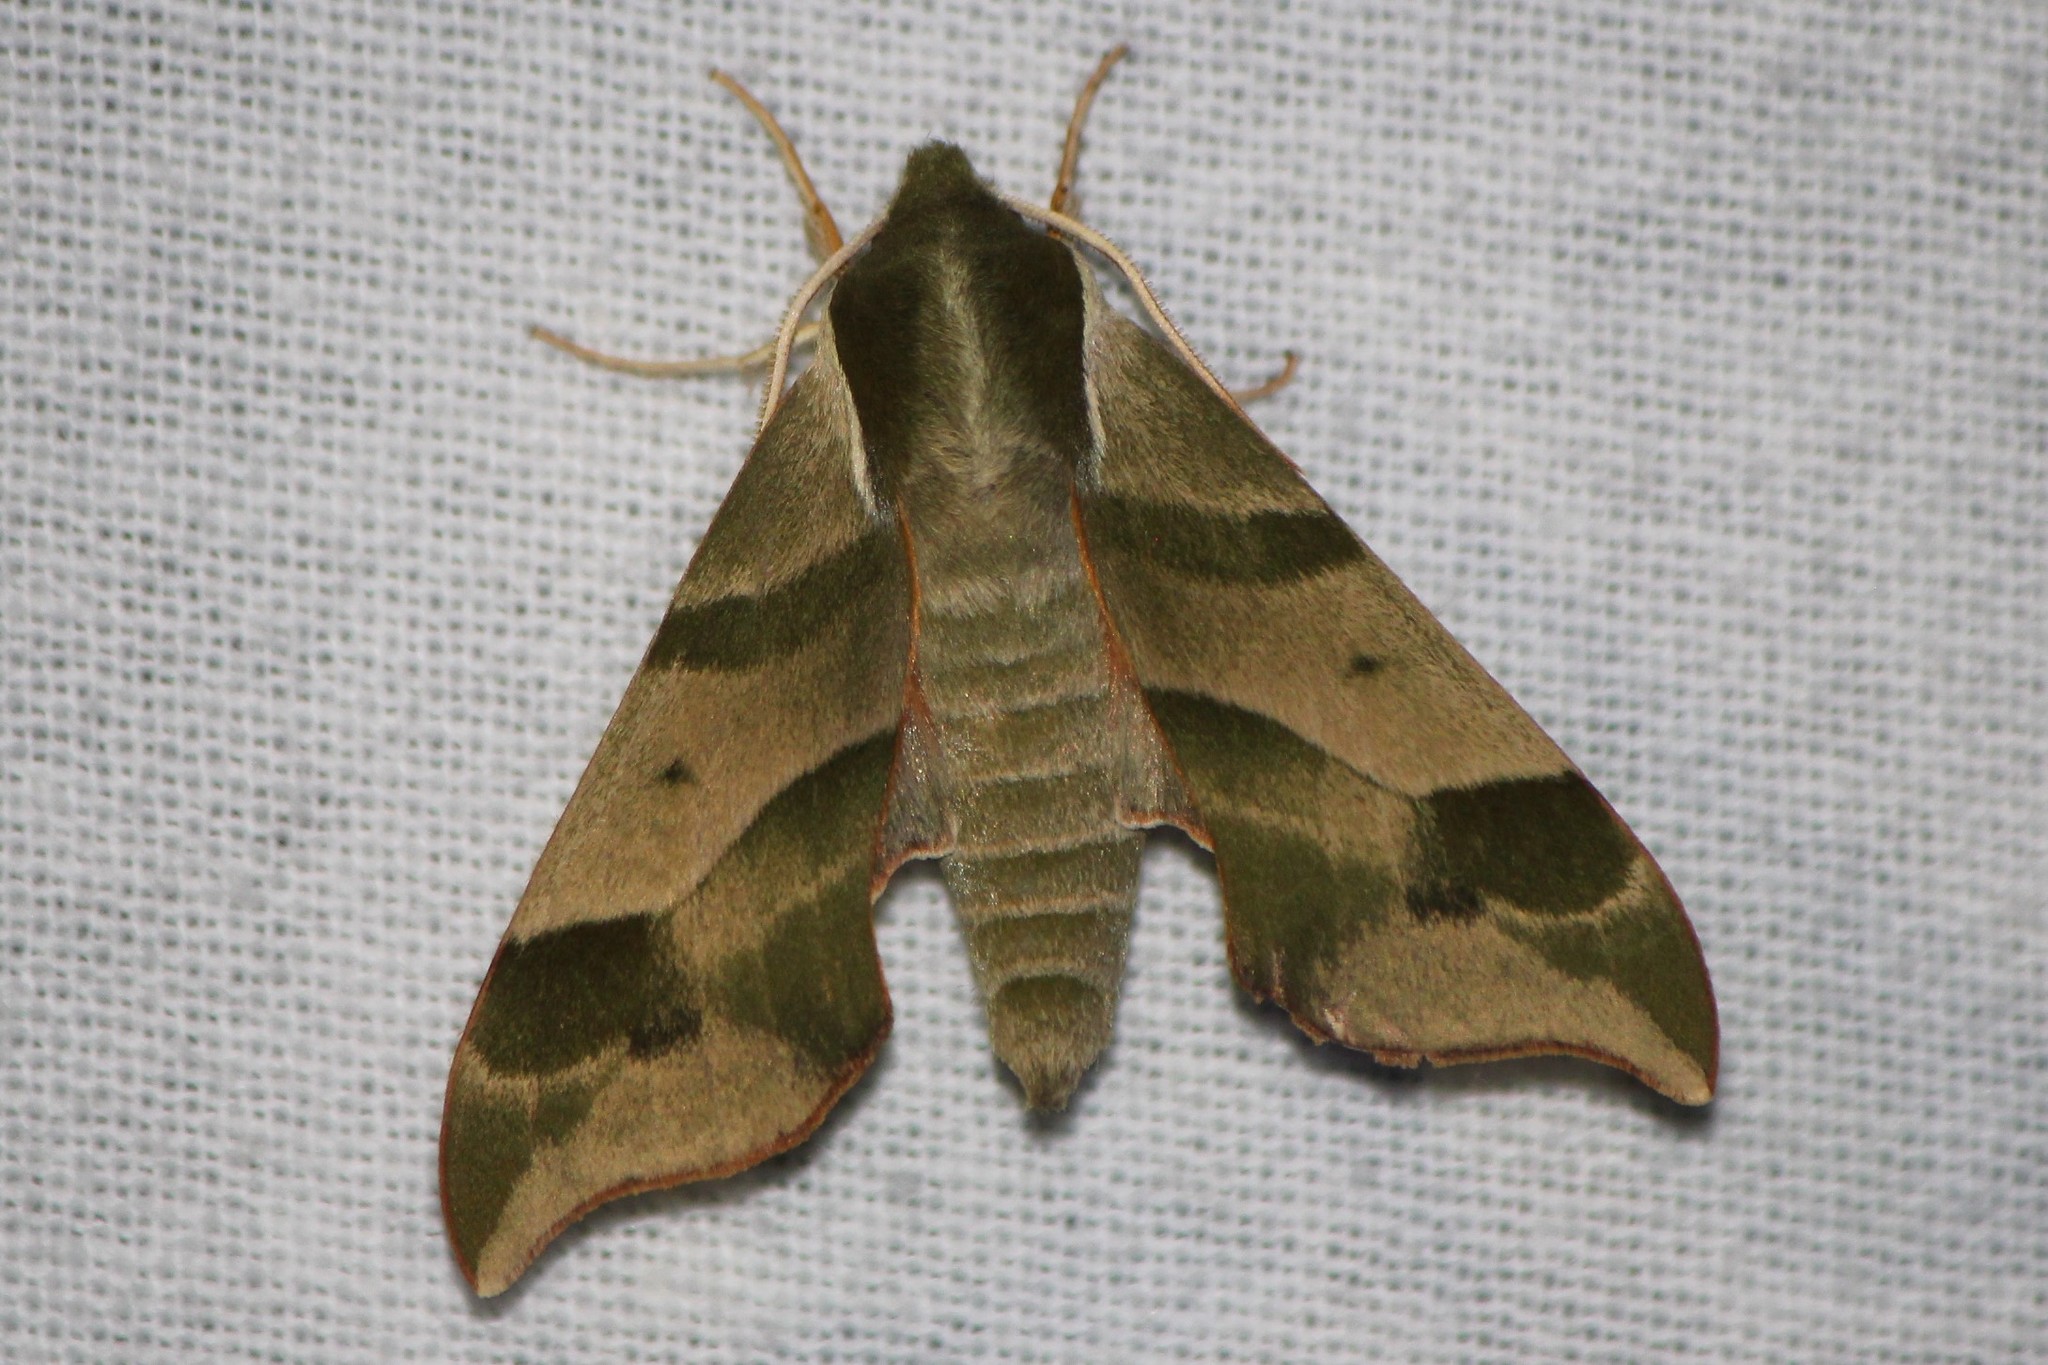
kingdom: Animalia
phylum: Arthropoda
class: Insecta
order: Lepidoptera
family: Sphingidae
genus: Darapsa
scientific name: Darapsa myron
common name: Hog sphinx
